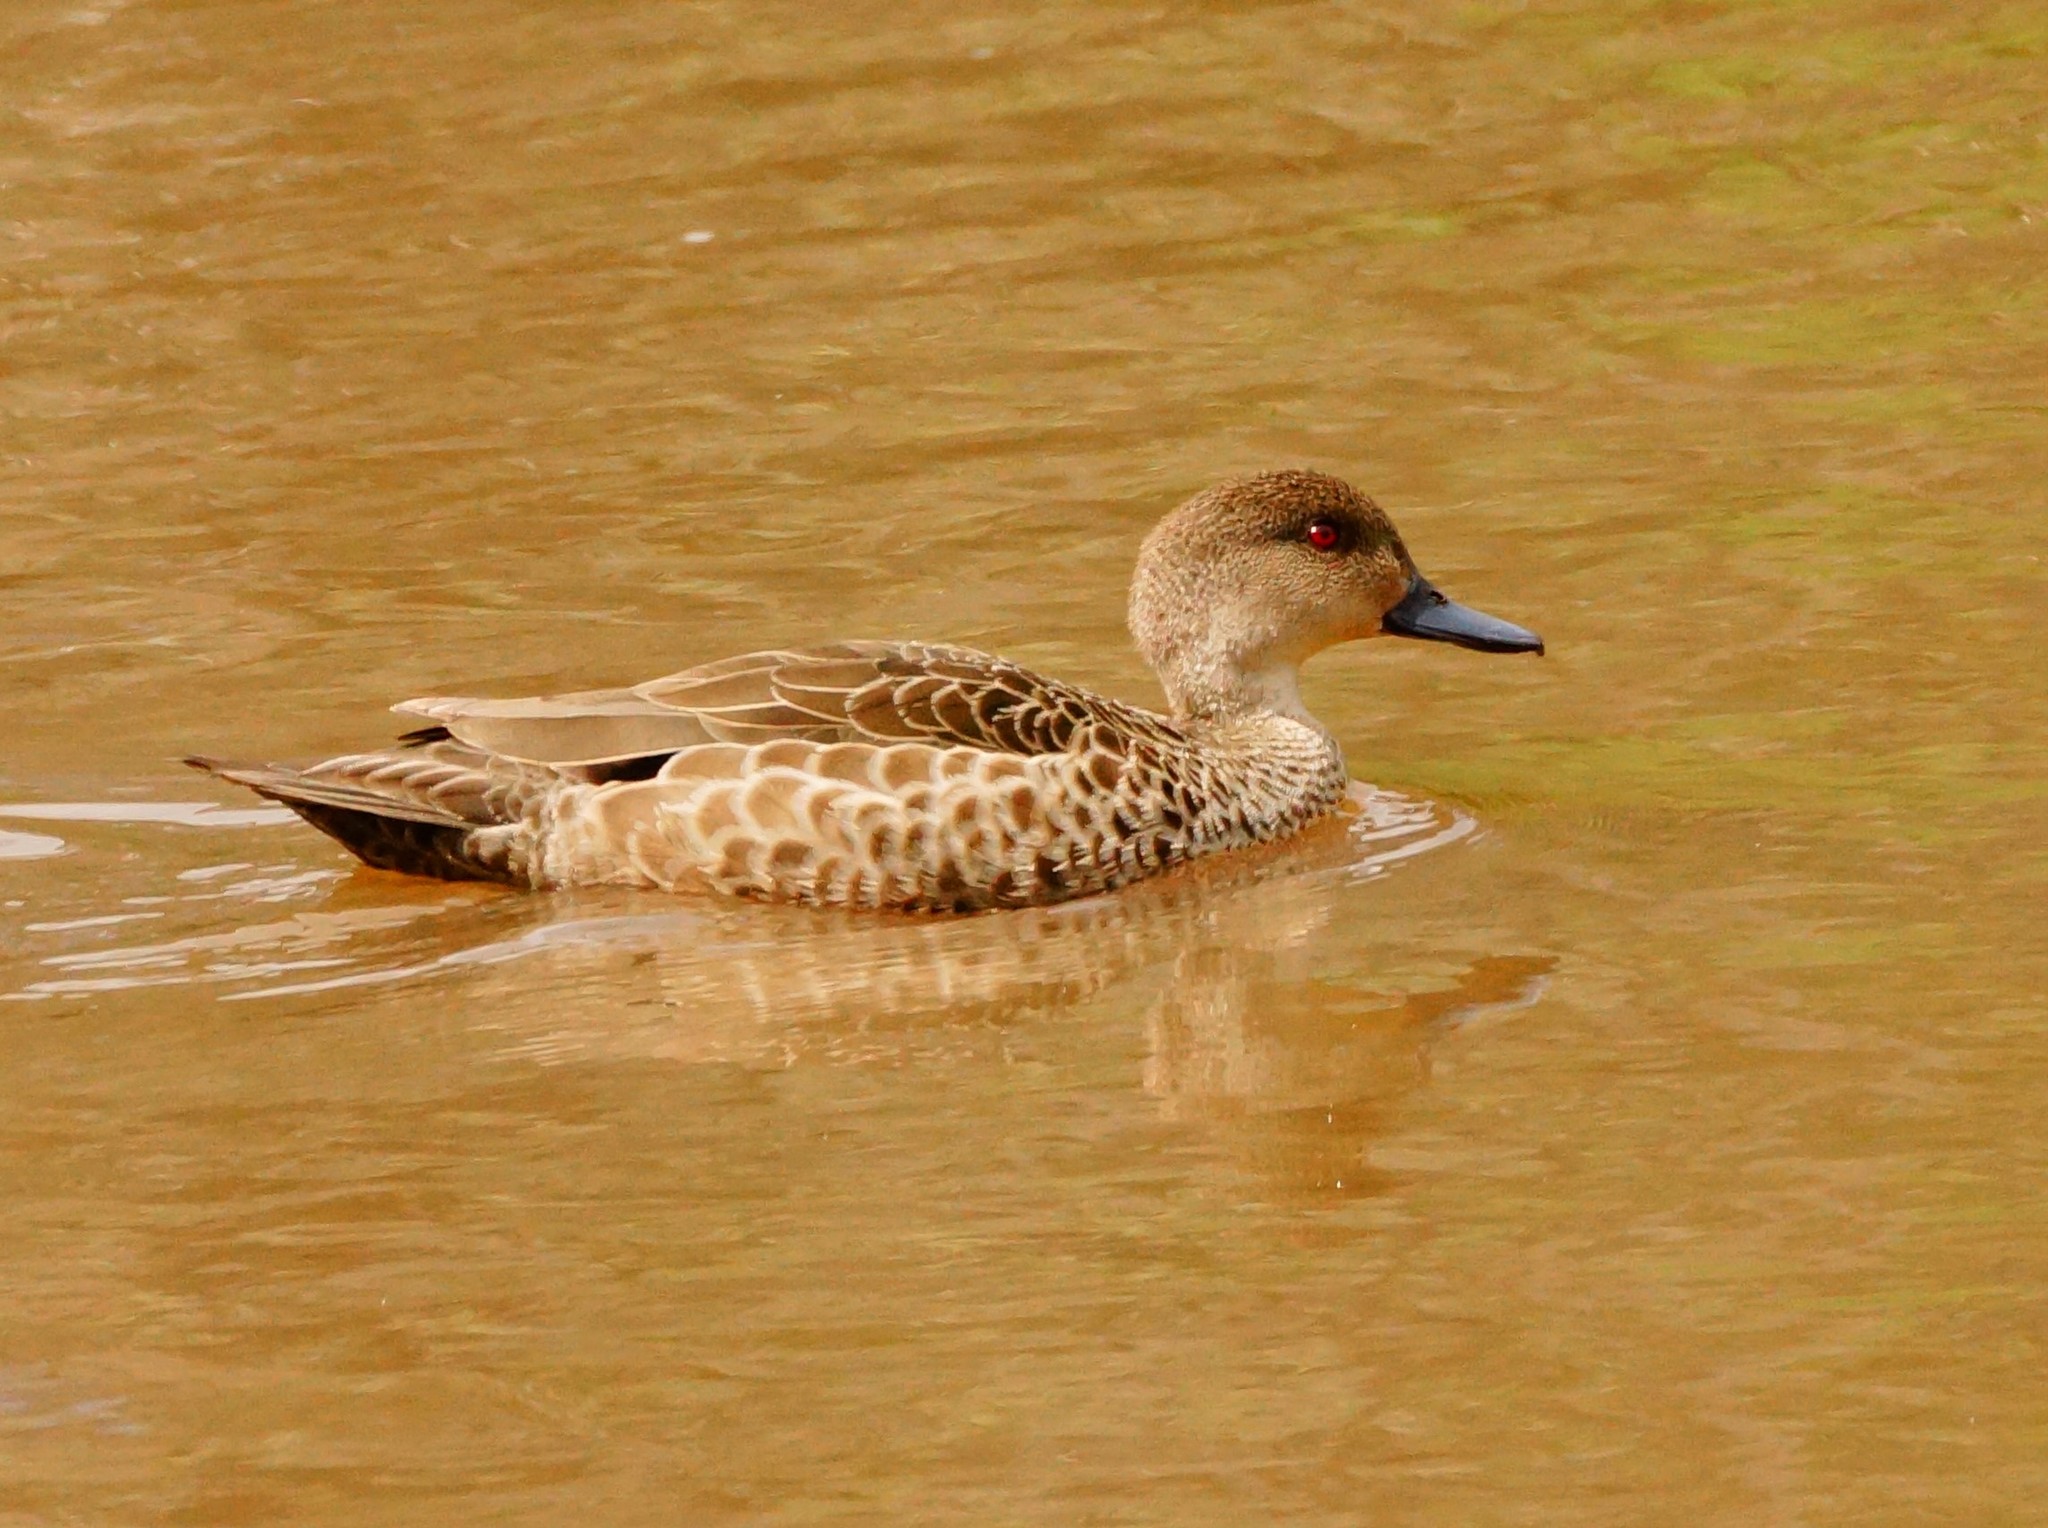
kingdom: Animalia
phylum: Chordata
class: Aves
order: Anseriformes
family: Anatidae
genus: Anas
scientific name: Anas gracilis
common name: Grey teal
